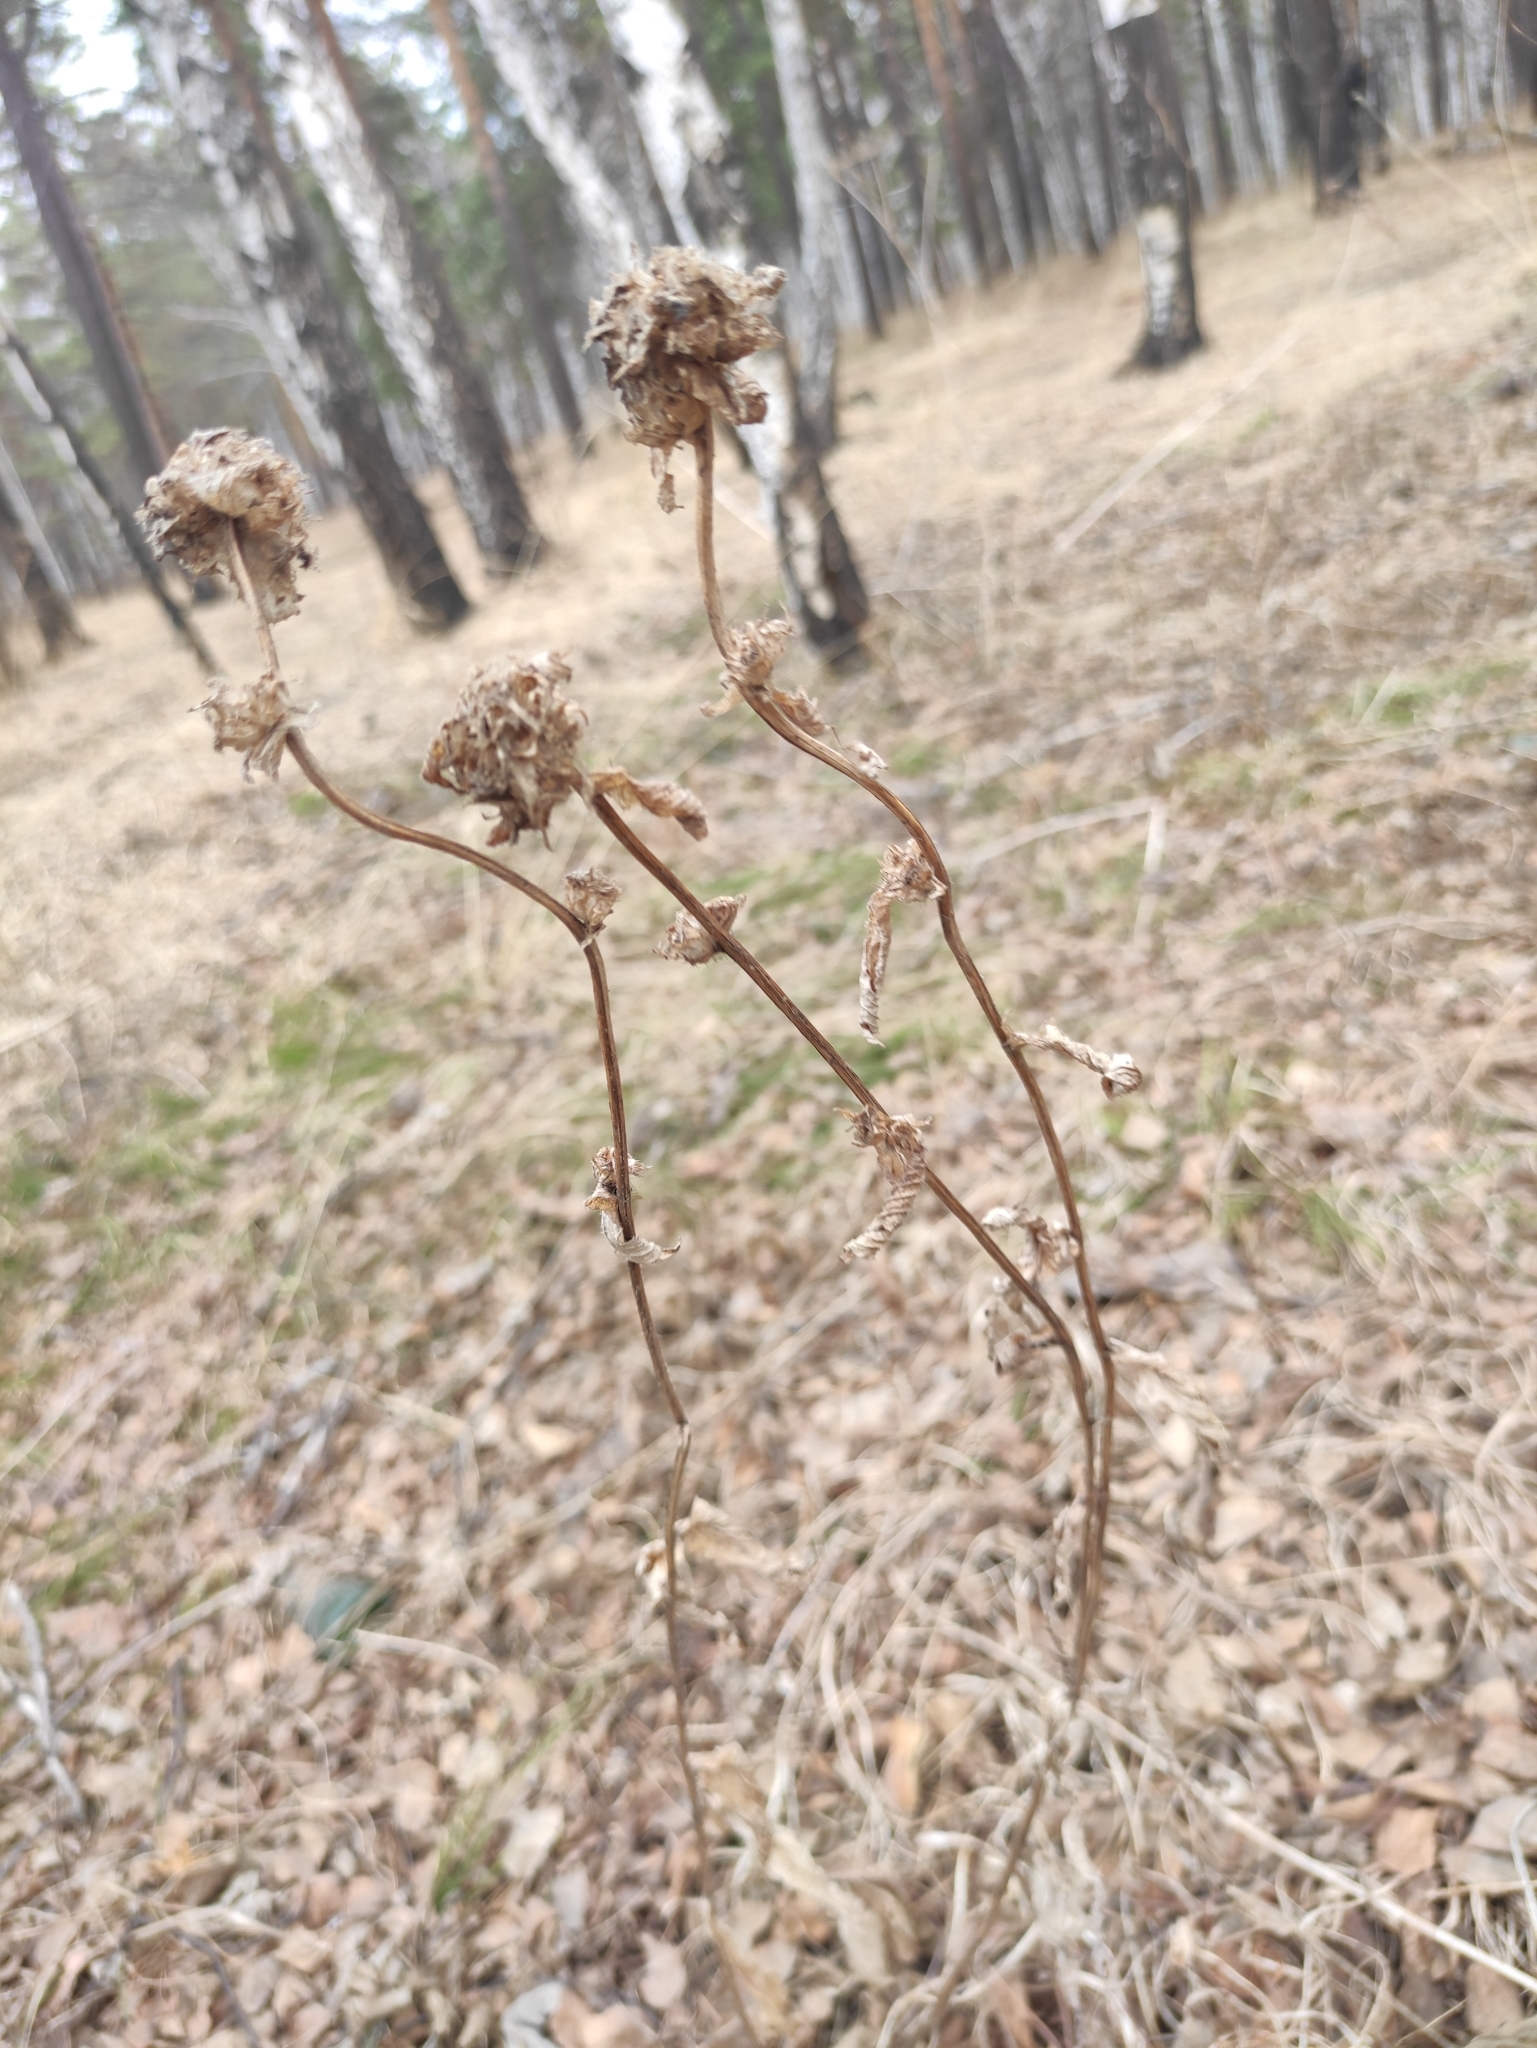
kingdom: Plantae
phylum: Tracheophyta
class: Magnoliopsida
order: Asterales
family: Campanulaceae
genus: Campanula
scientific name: Campanula glomerata
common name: Clustered bellflower
